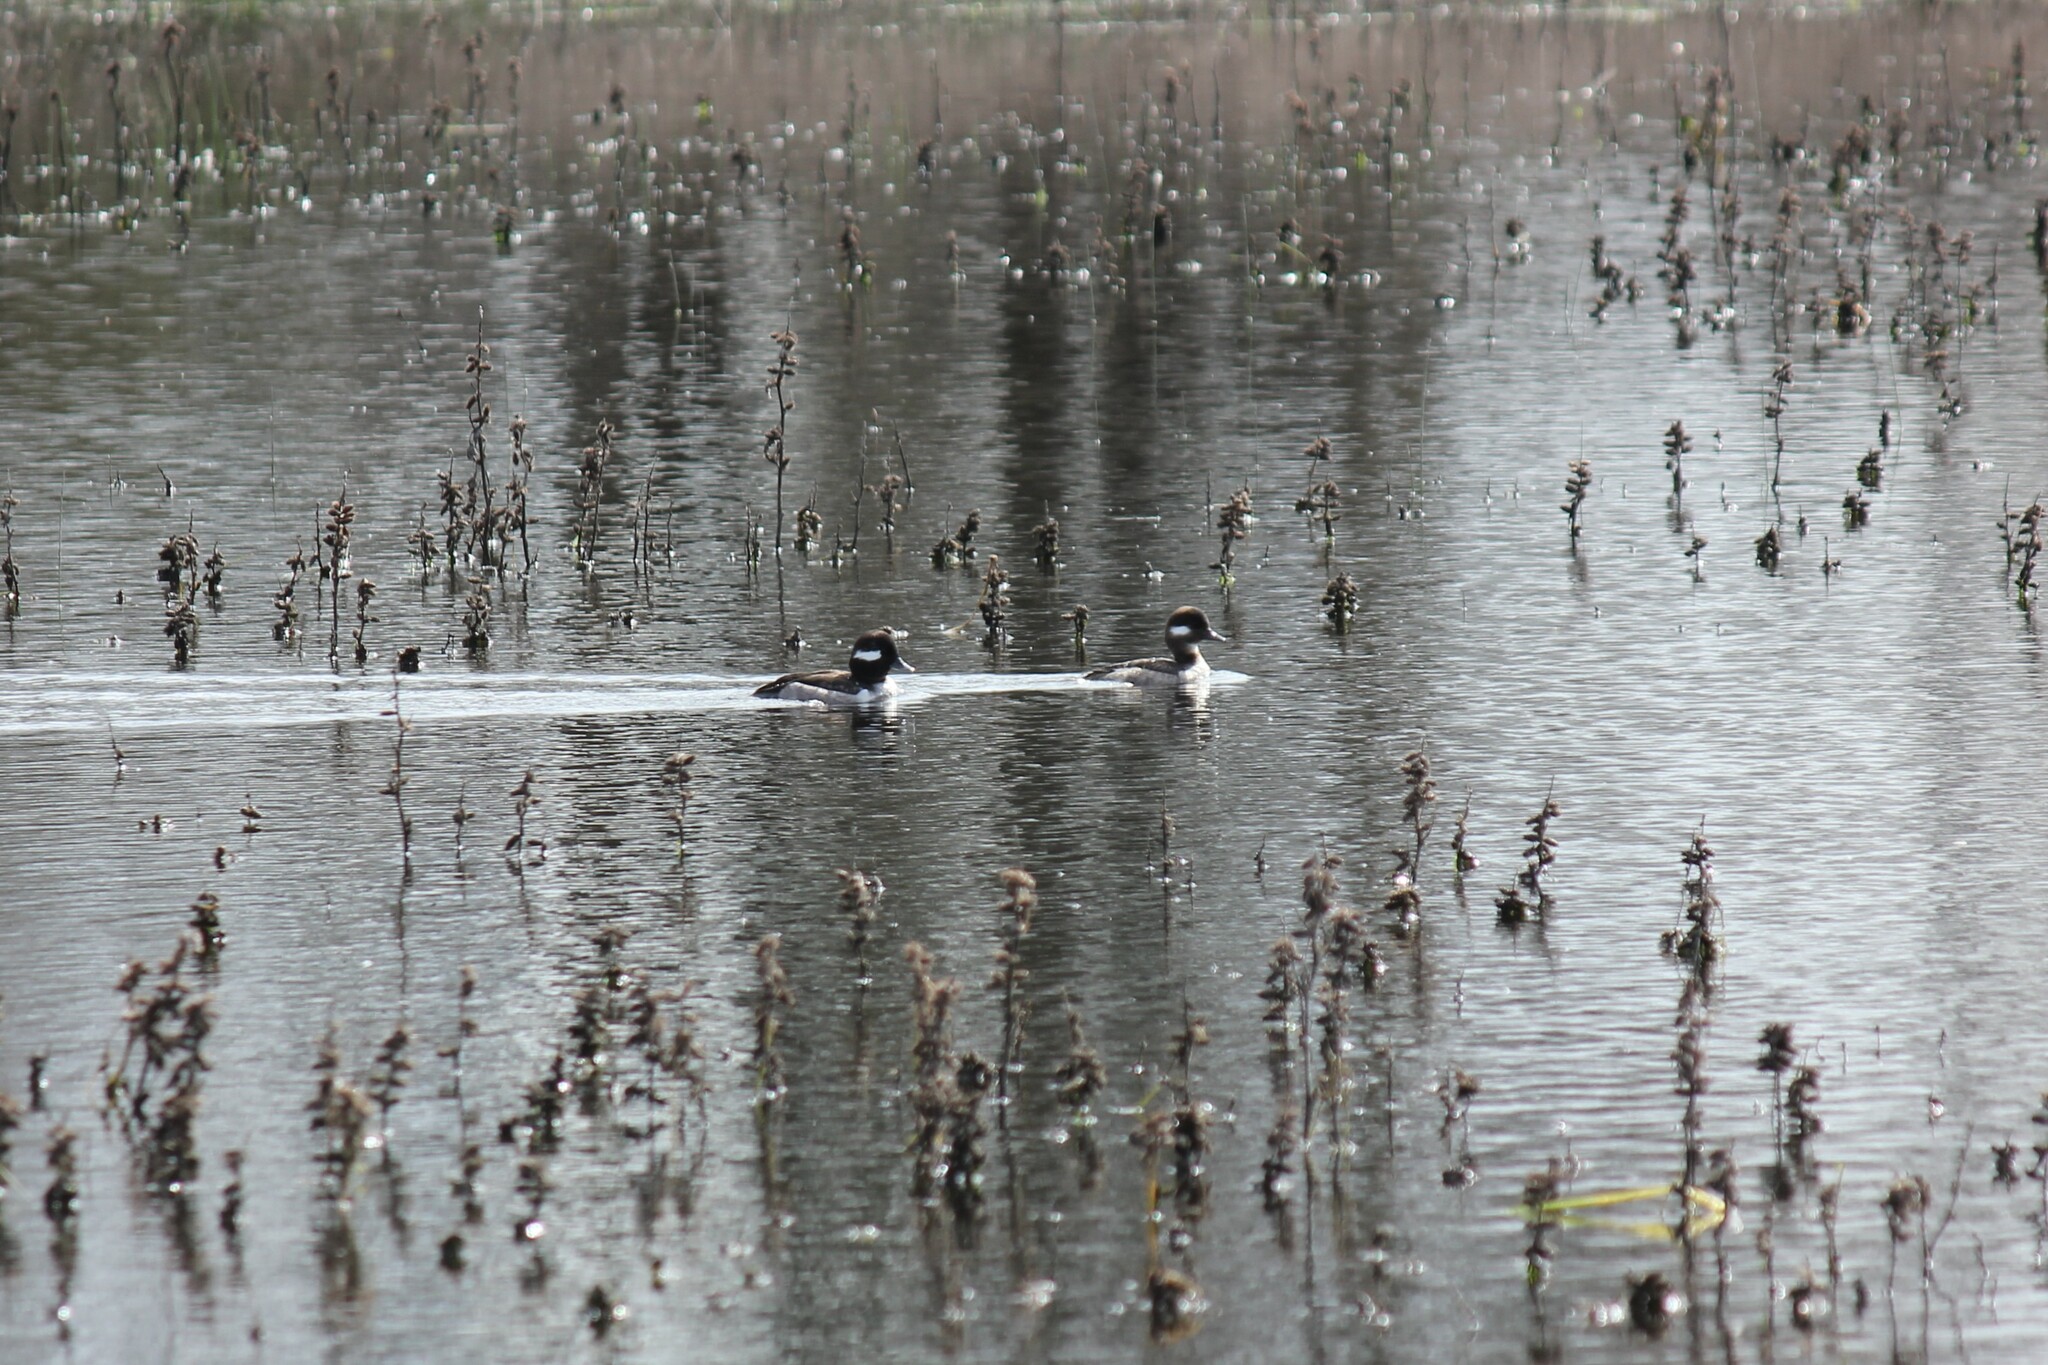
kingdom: Animalia
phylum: Chordata
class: Aves
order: Anseriformes
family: Anatidae
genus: Bucephala
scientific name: Bucephala albeola
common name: Bufflehead
